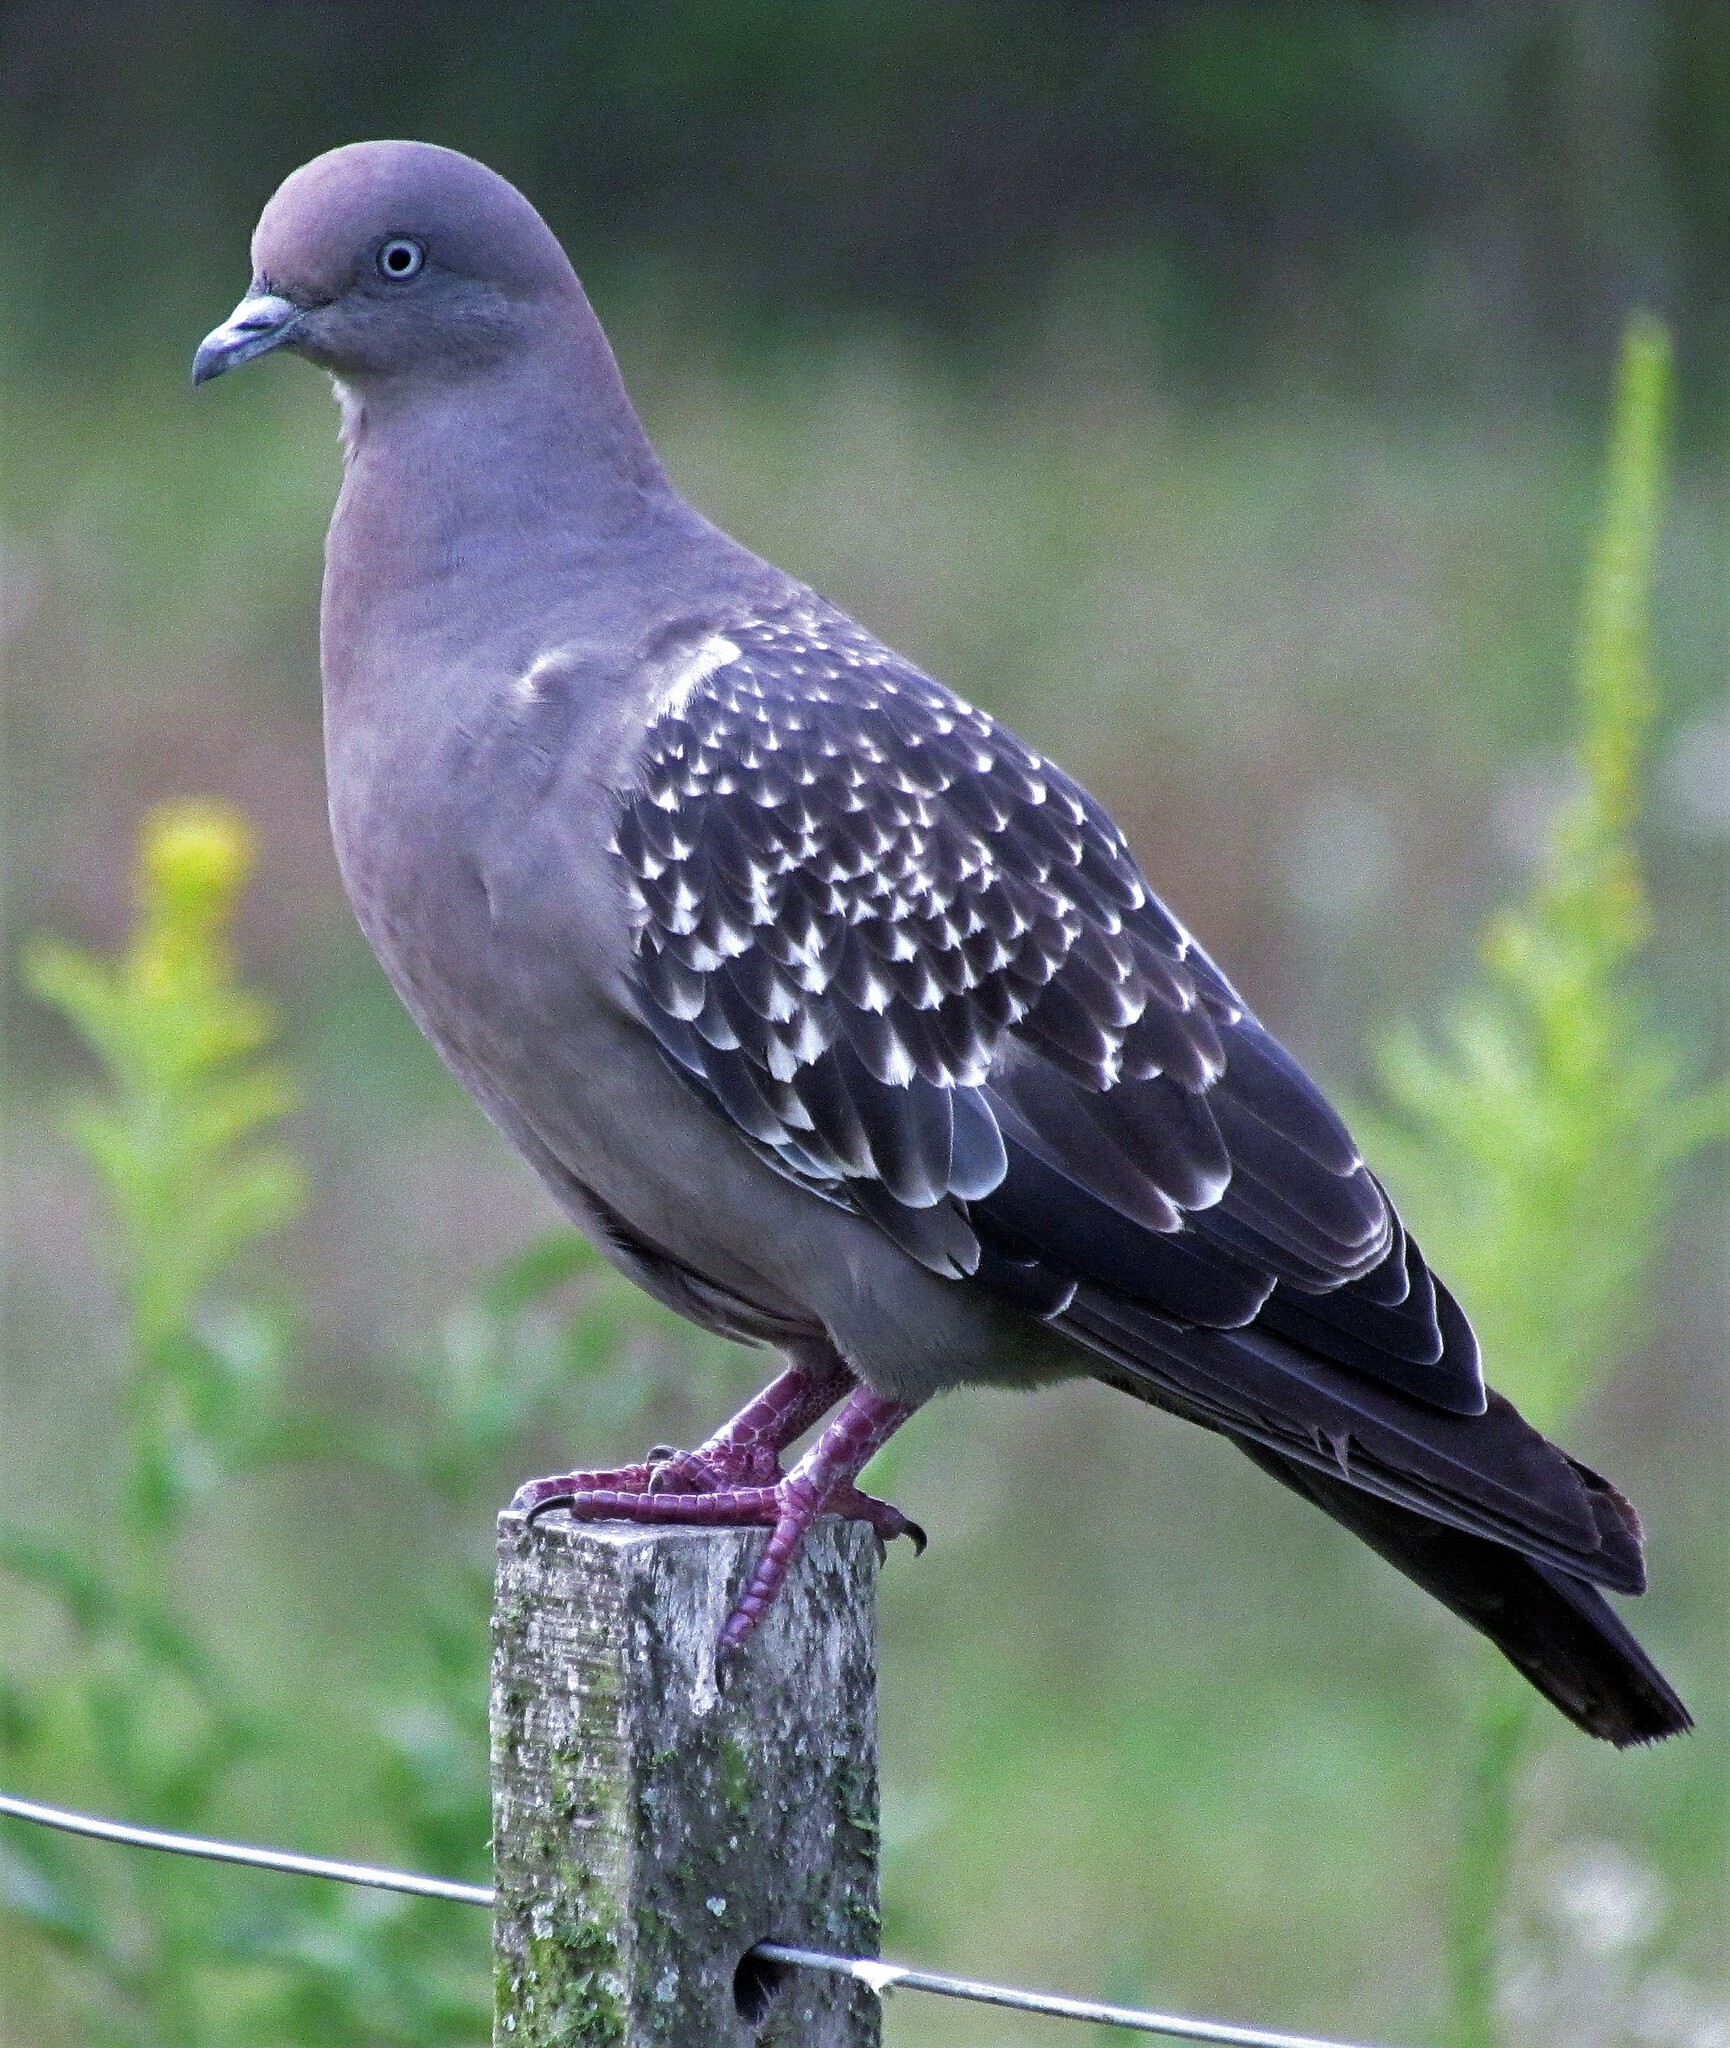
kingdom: Animalia
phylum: Chordata
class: Aves
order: Columbiformes
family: Columbidae
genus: Patagioenas
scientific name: Patagioenas maculosa
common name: Spot-winged pigeon
